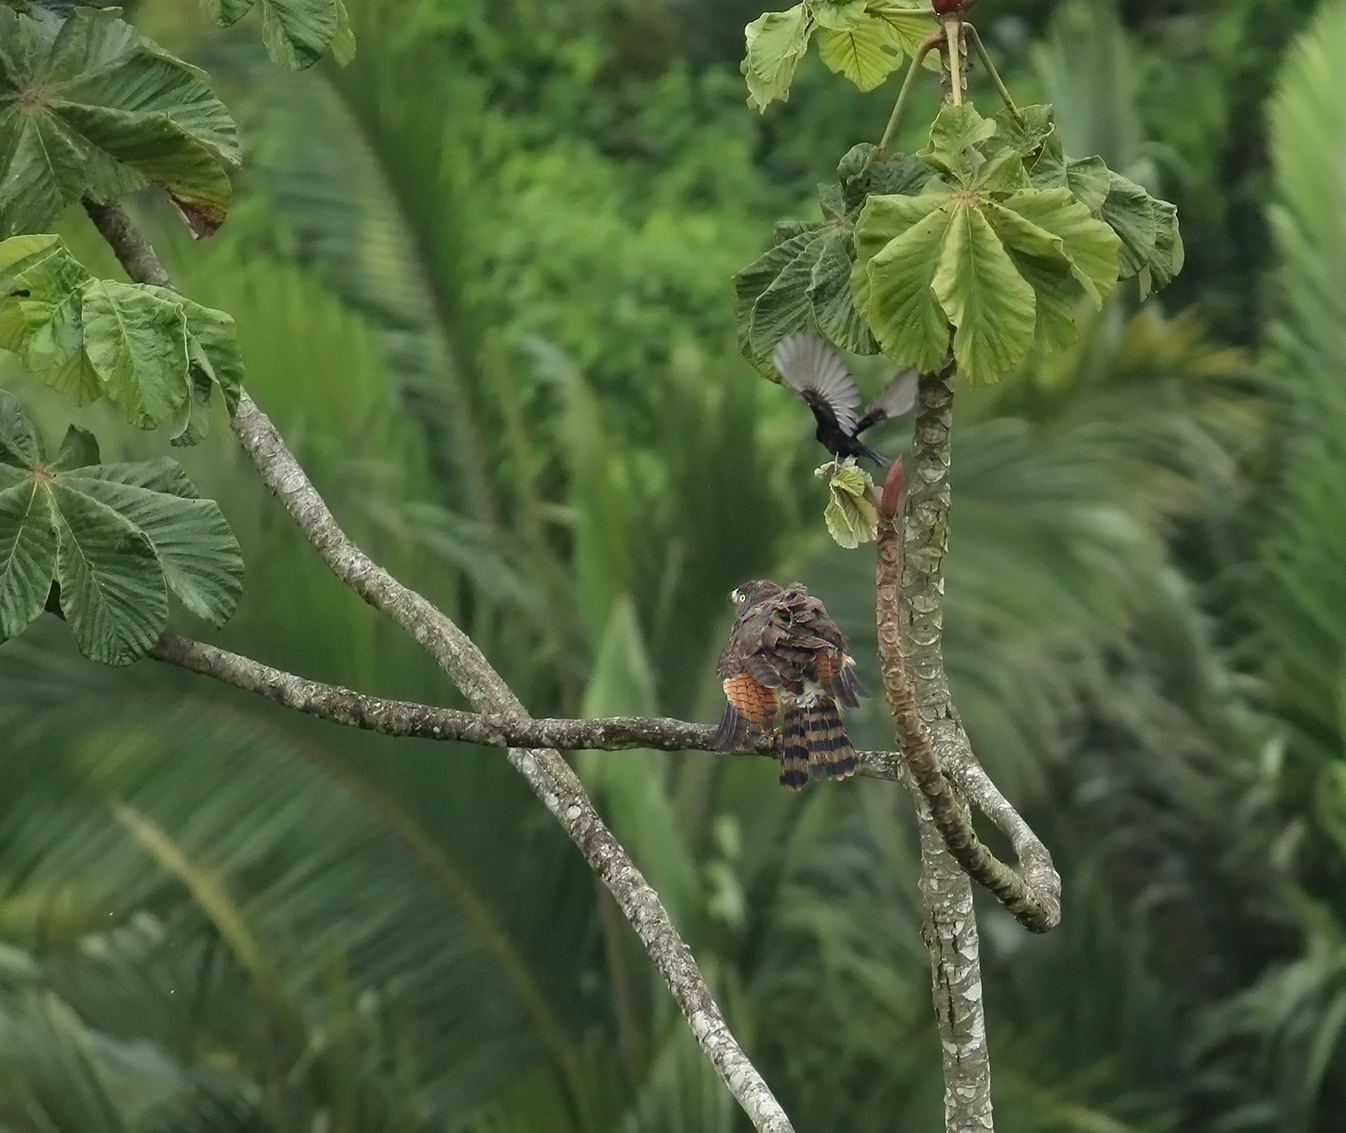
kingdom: Animalia
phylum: Chordata
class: Aves
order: Accipitriformes
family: Accipitridae
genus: Rupornis
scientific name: Rupornis magnirostris
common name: Roadside hawk
